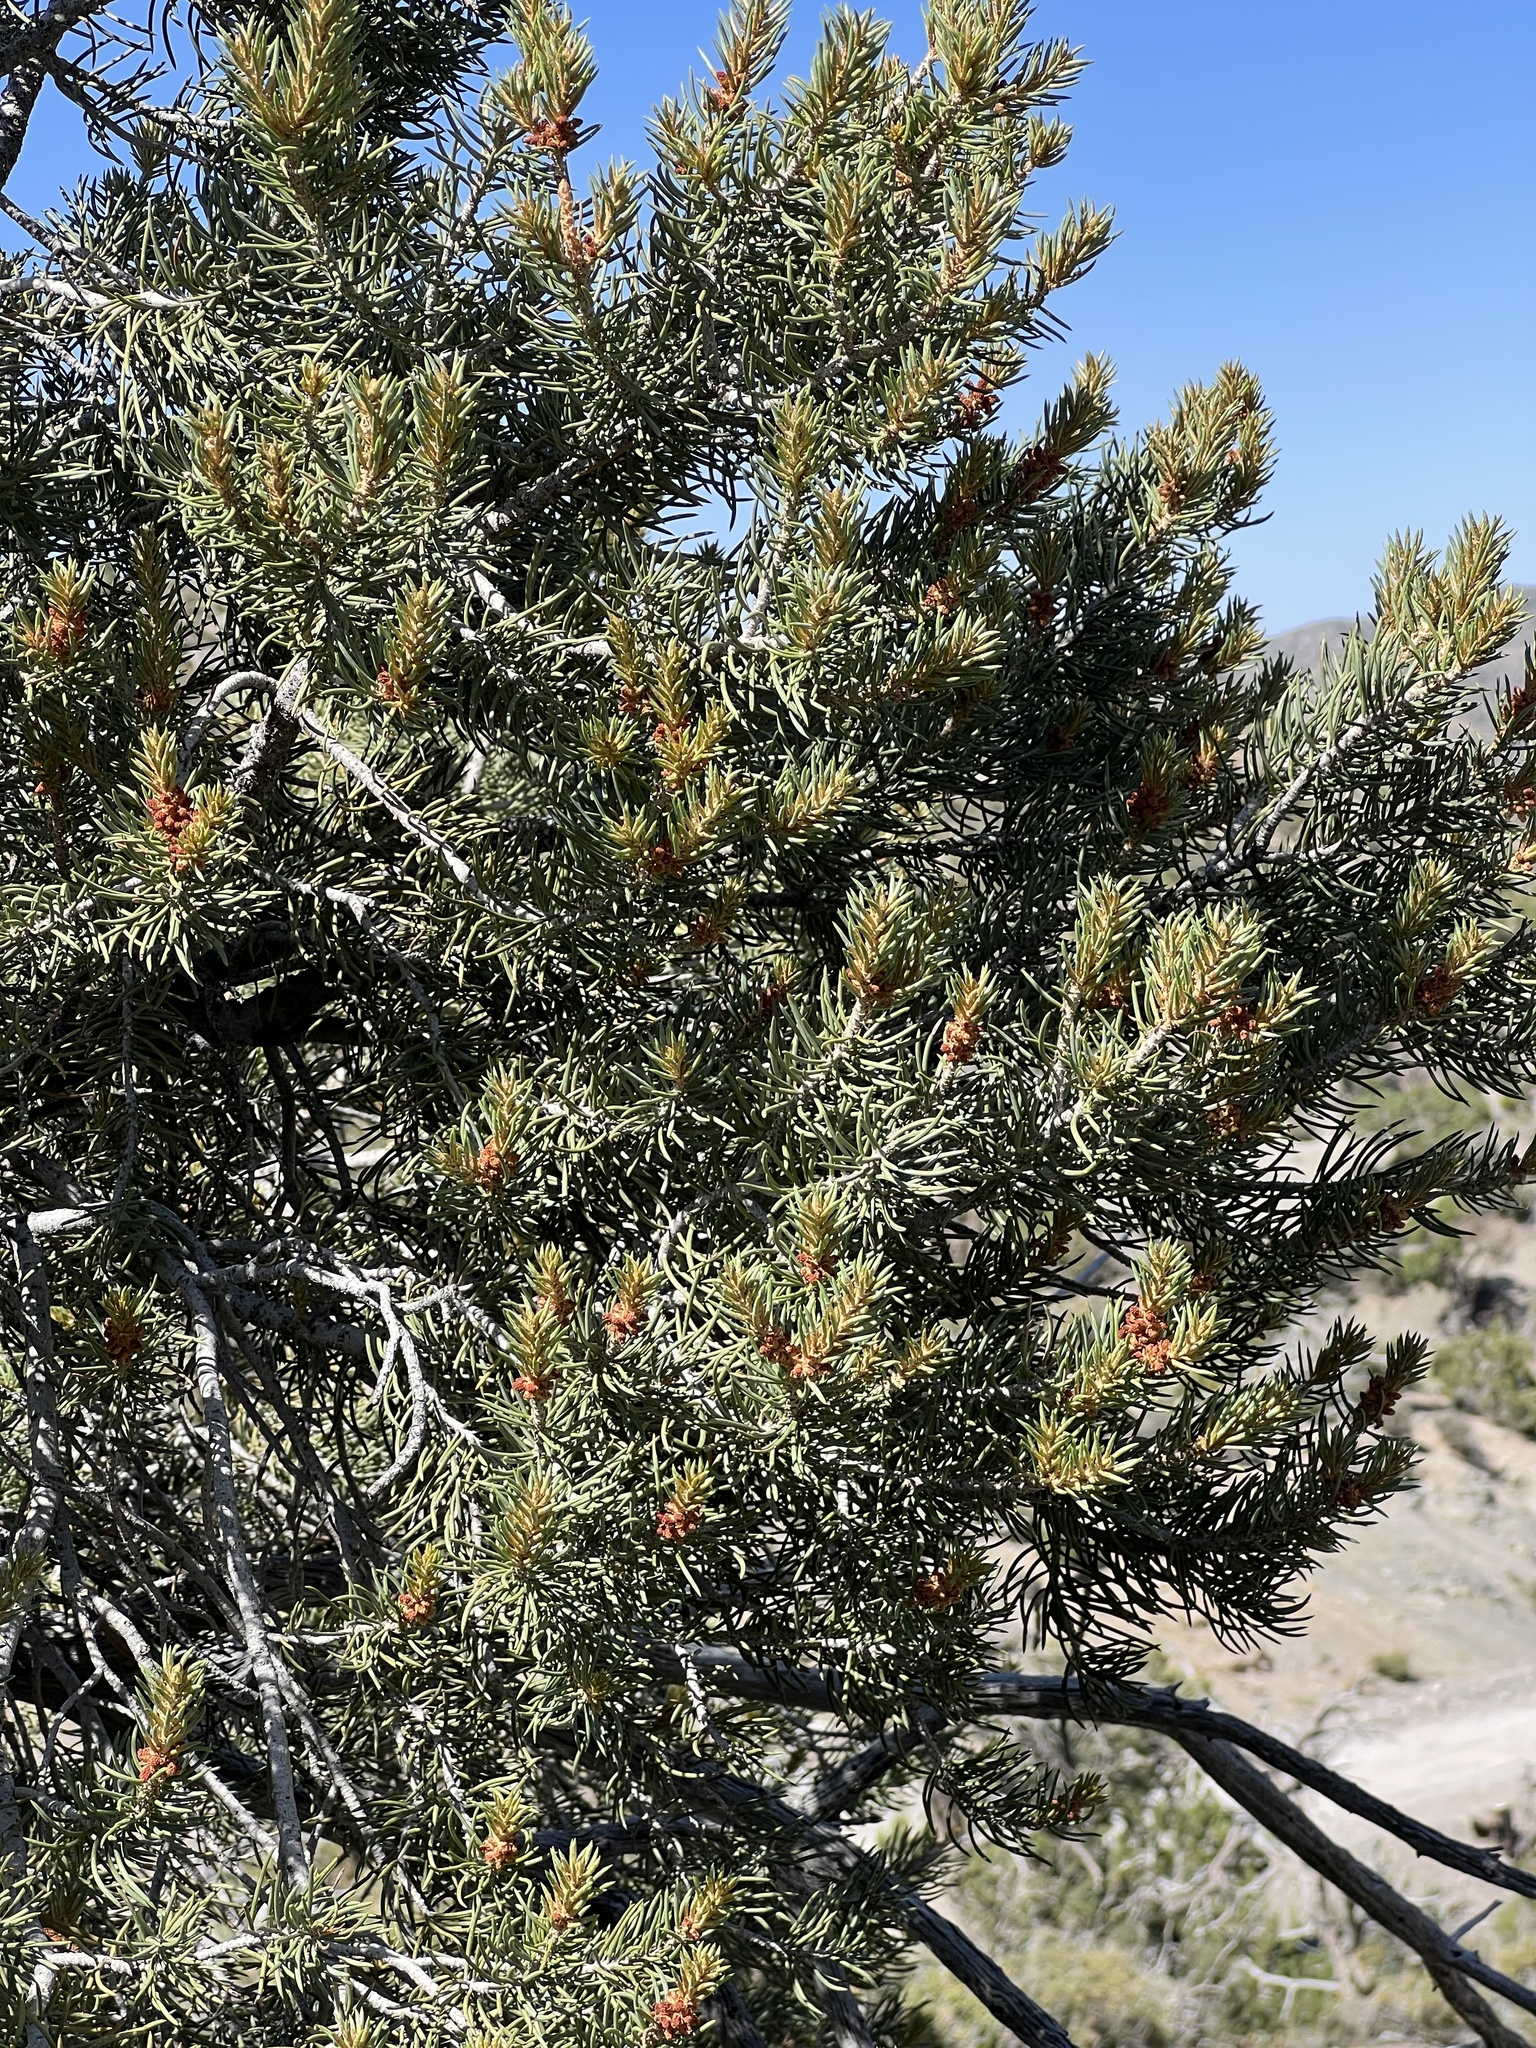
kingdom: Plantae
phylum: Tracheophyta
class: Pinopsida
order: Pinales
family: Pinaceae
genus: Pinus
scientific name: Pinus monophylla
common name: One-leaved nut pine
